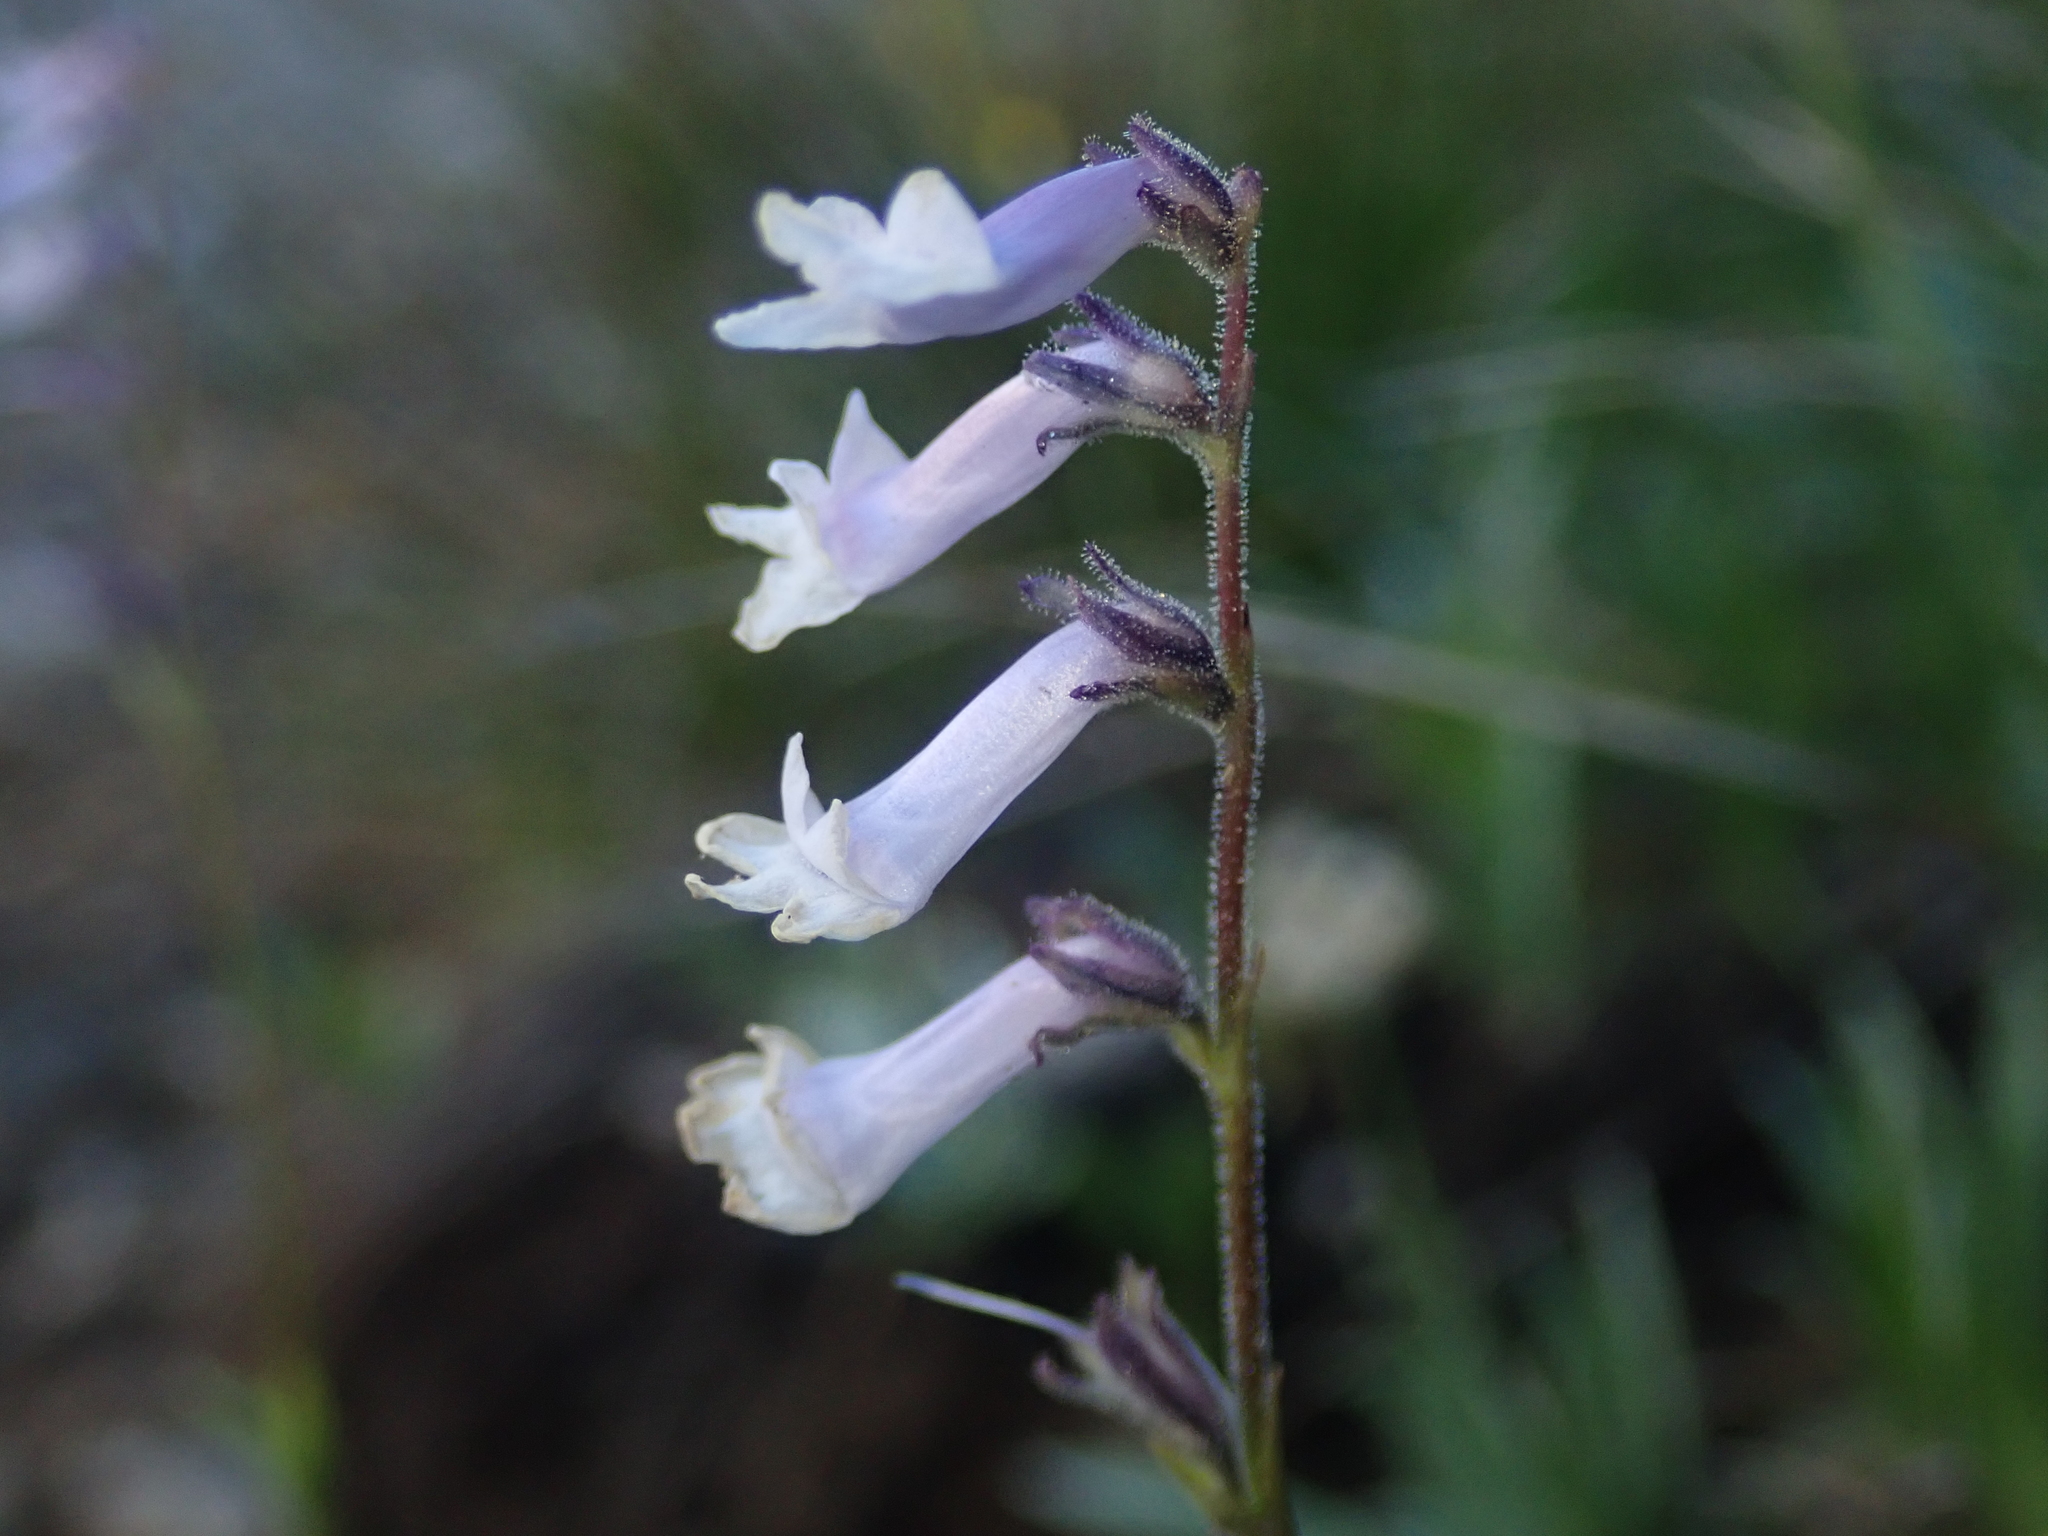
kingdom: Plantae
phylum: Tracheophyta
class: Magnoliopsida
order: Lamiales
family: Plantaginaceae
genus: Chionophila
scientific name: Chionophila tweedyi
